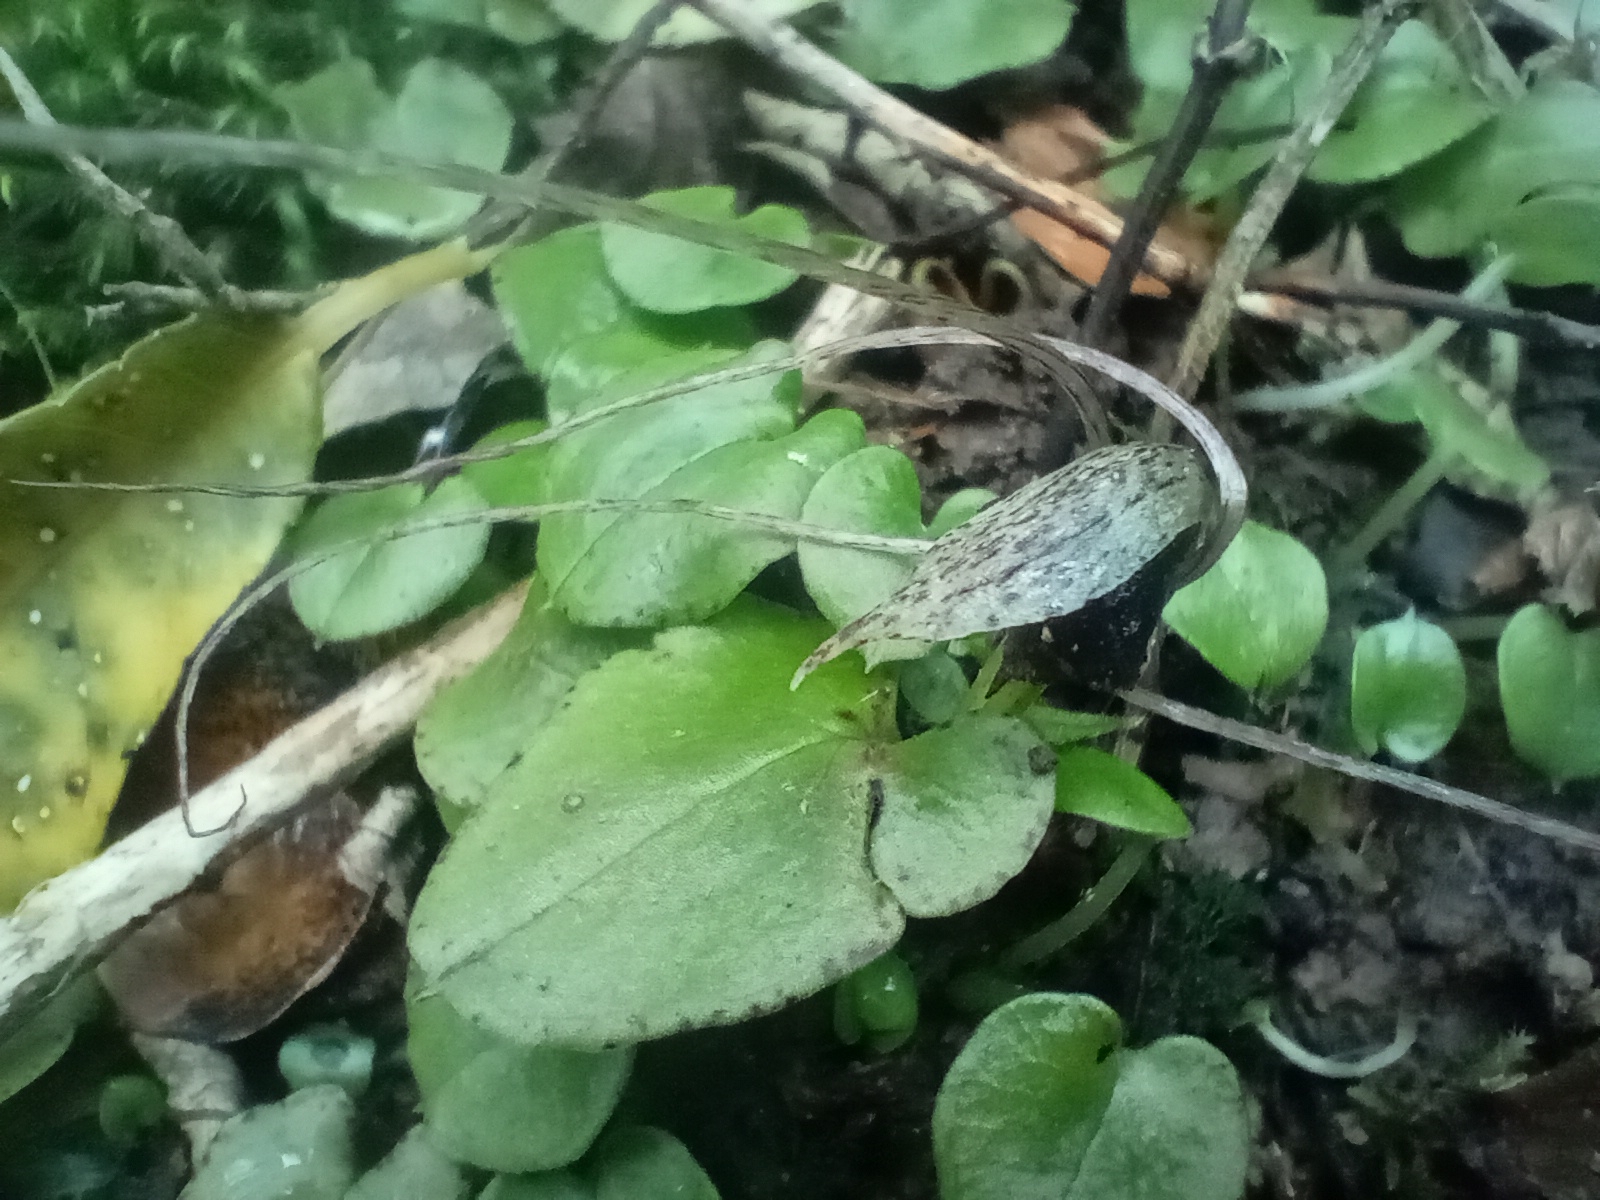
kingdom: Plantae
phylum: Tracheophyta
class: Liliopsida
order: Asparagales
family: Orchidaceae
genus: Corybas
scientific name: Corybas iridescens
